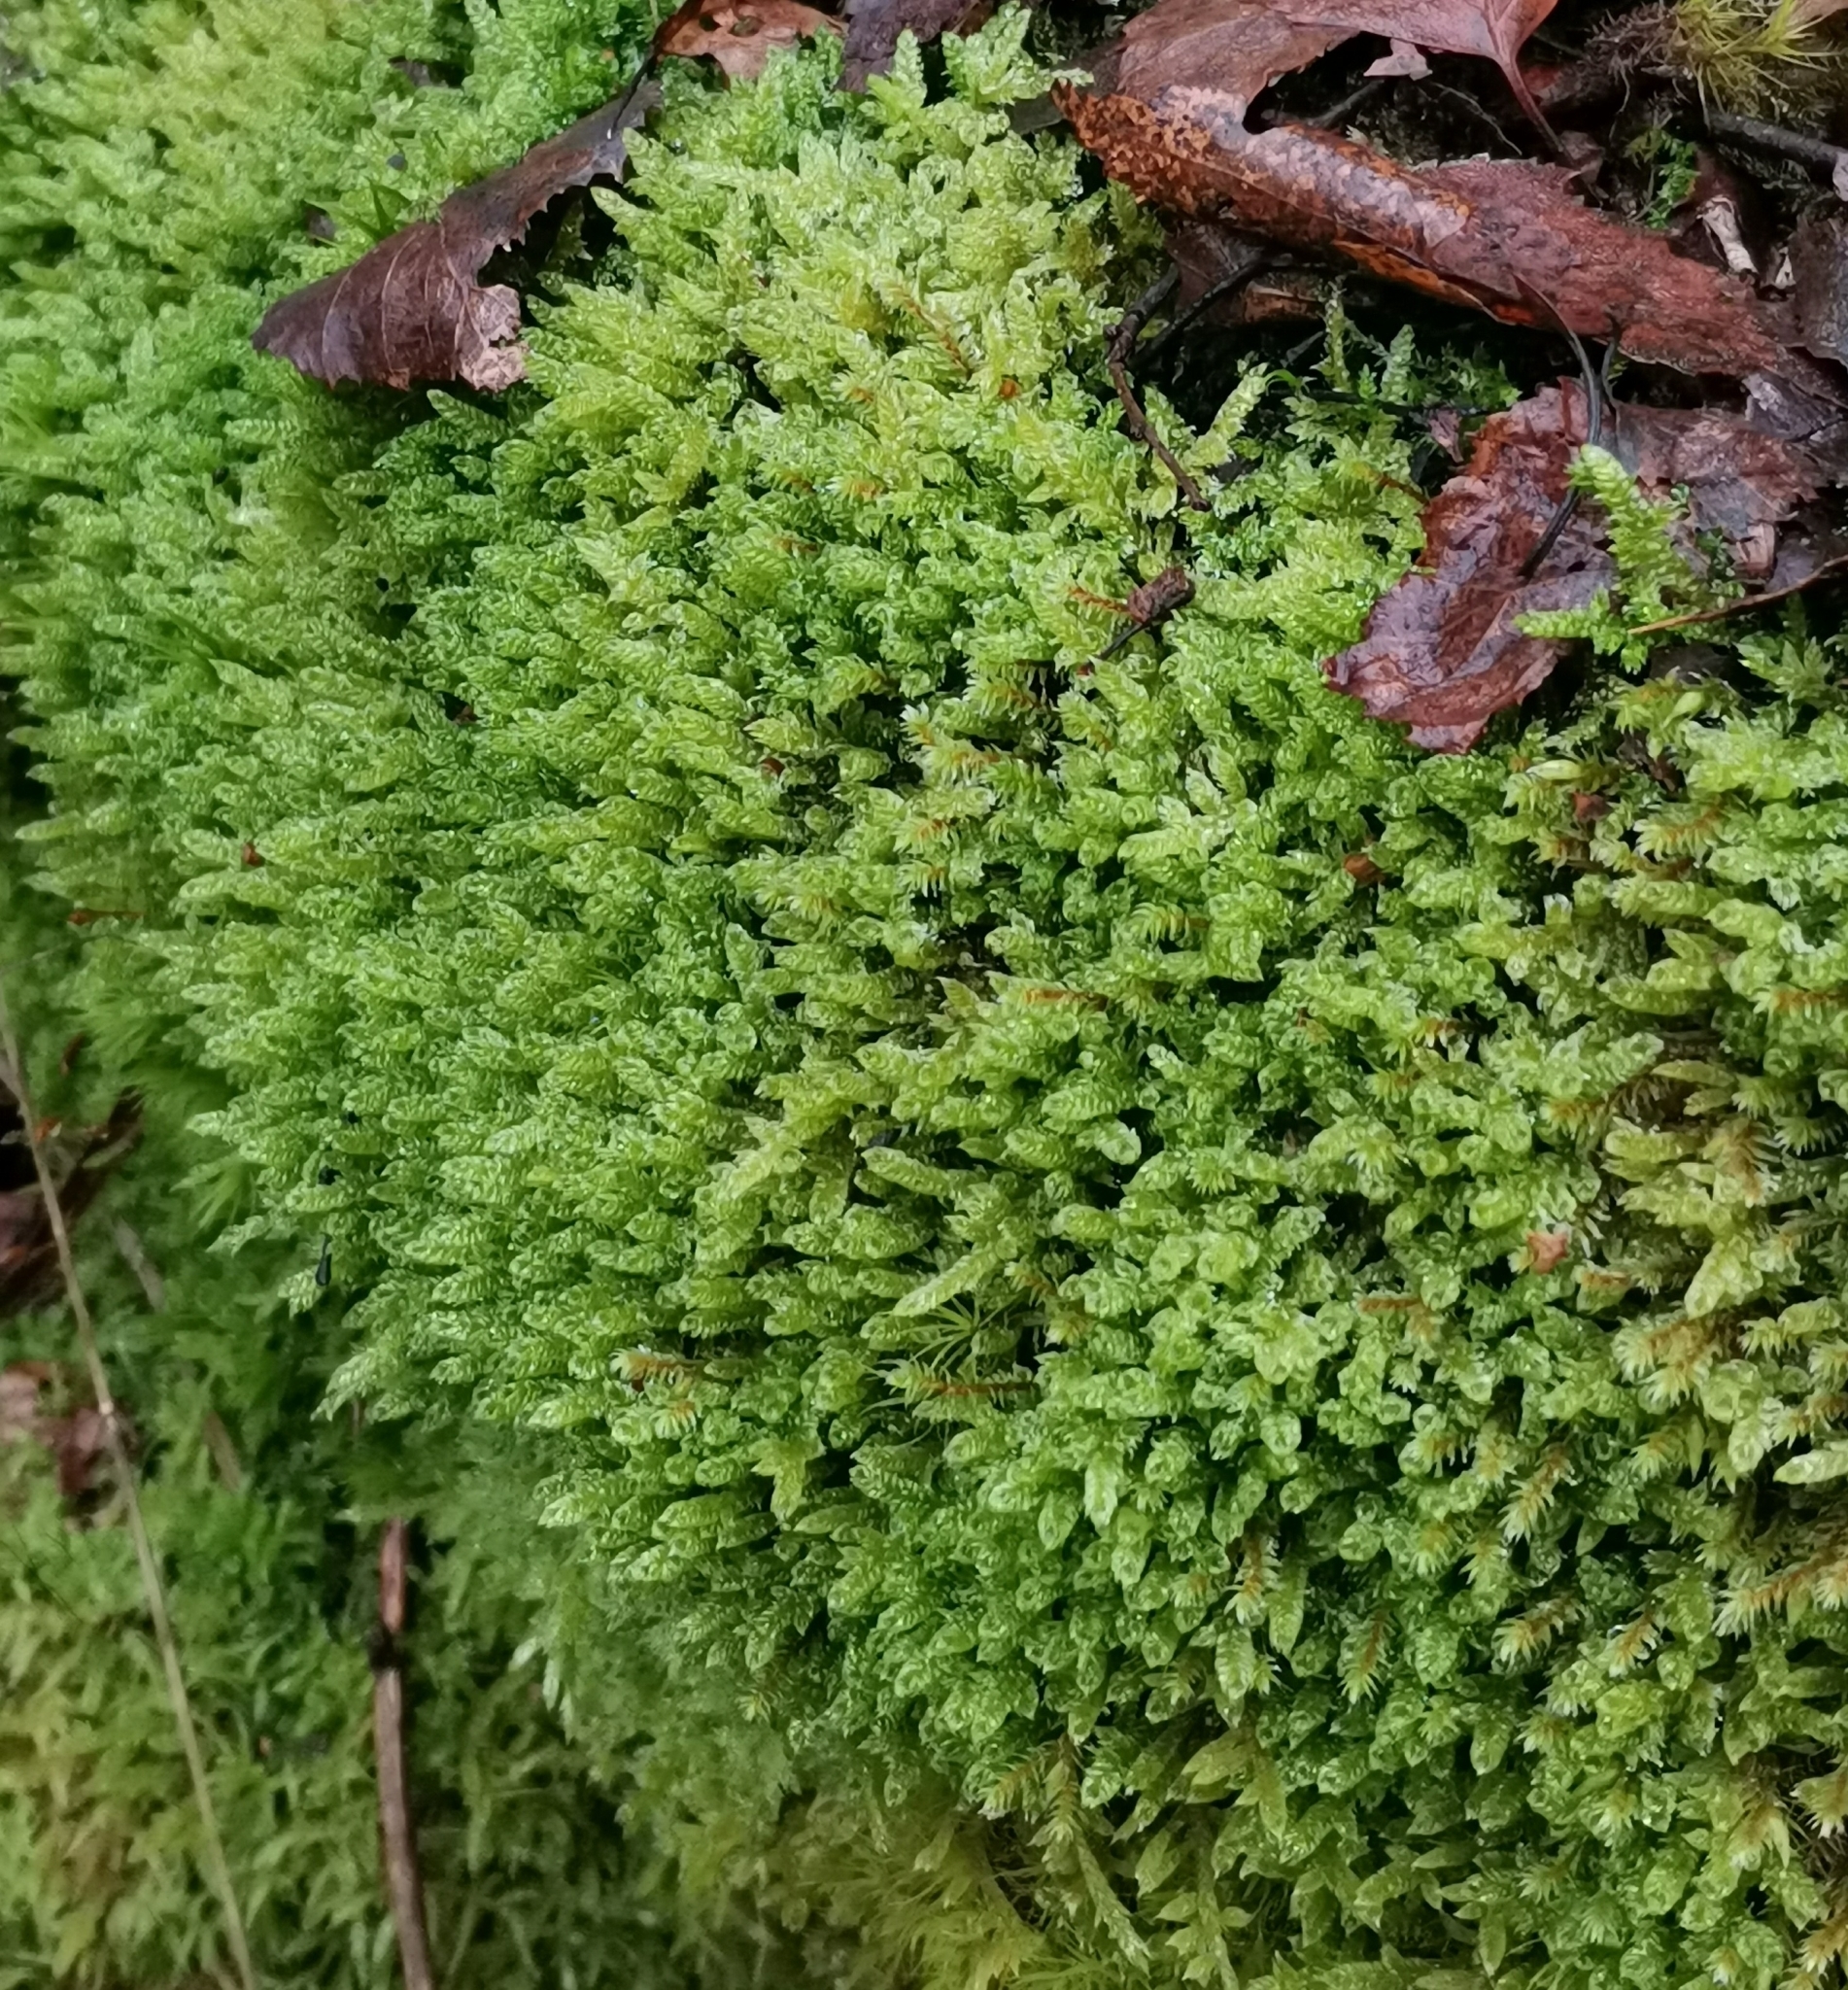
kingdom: Plantae
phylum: Bryophyta
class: Bryopsida
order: Hypnales
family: Hypnaceae
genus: Hypnum
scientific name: Hypnum cupressiforme
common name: Cypress-leaved plait-moss
